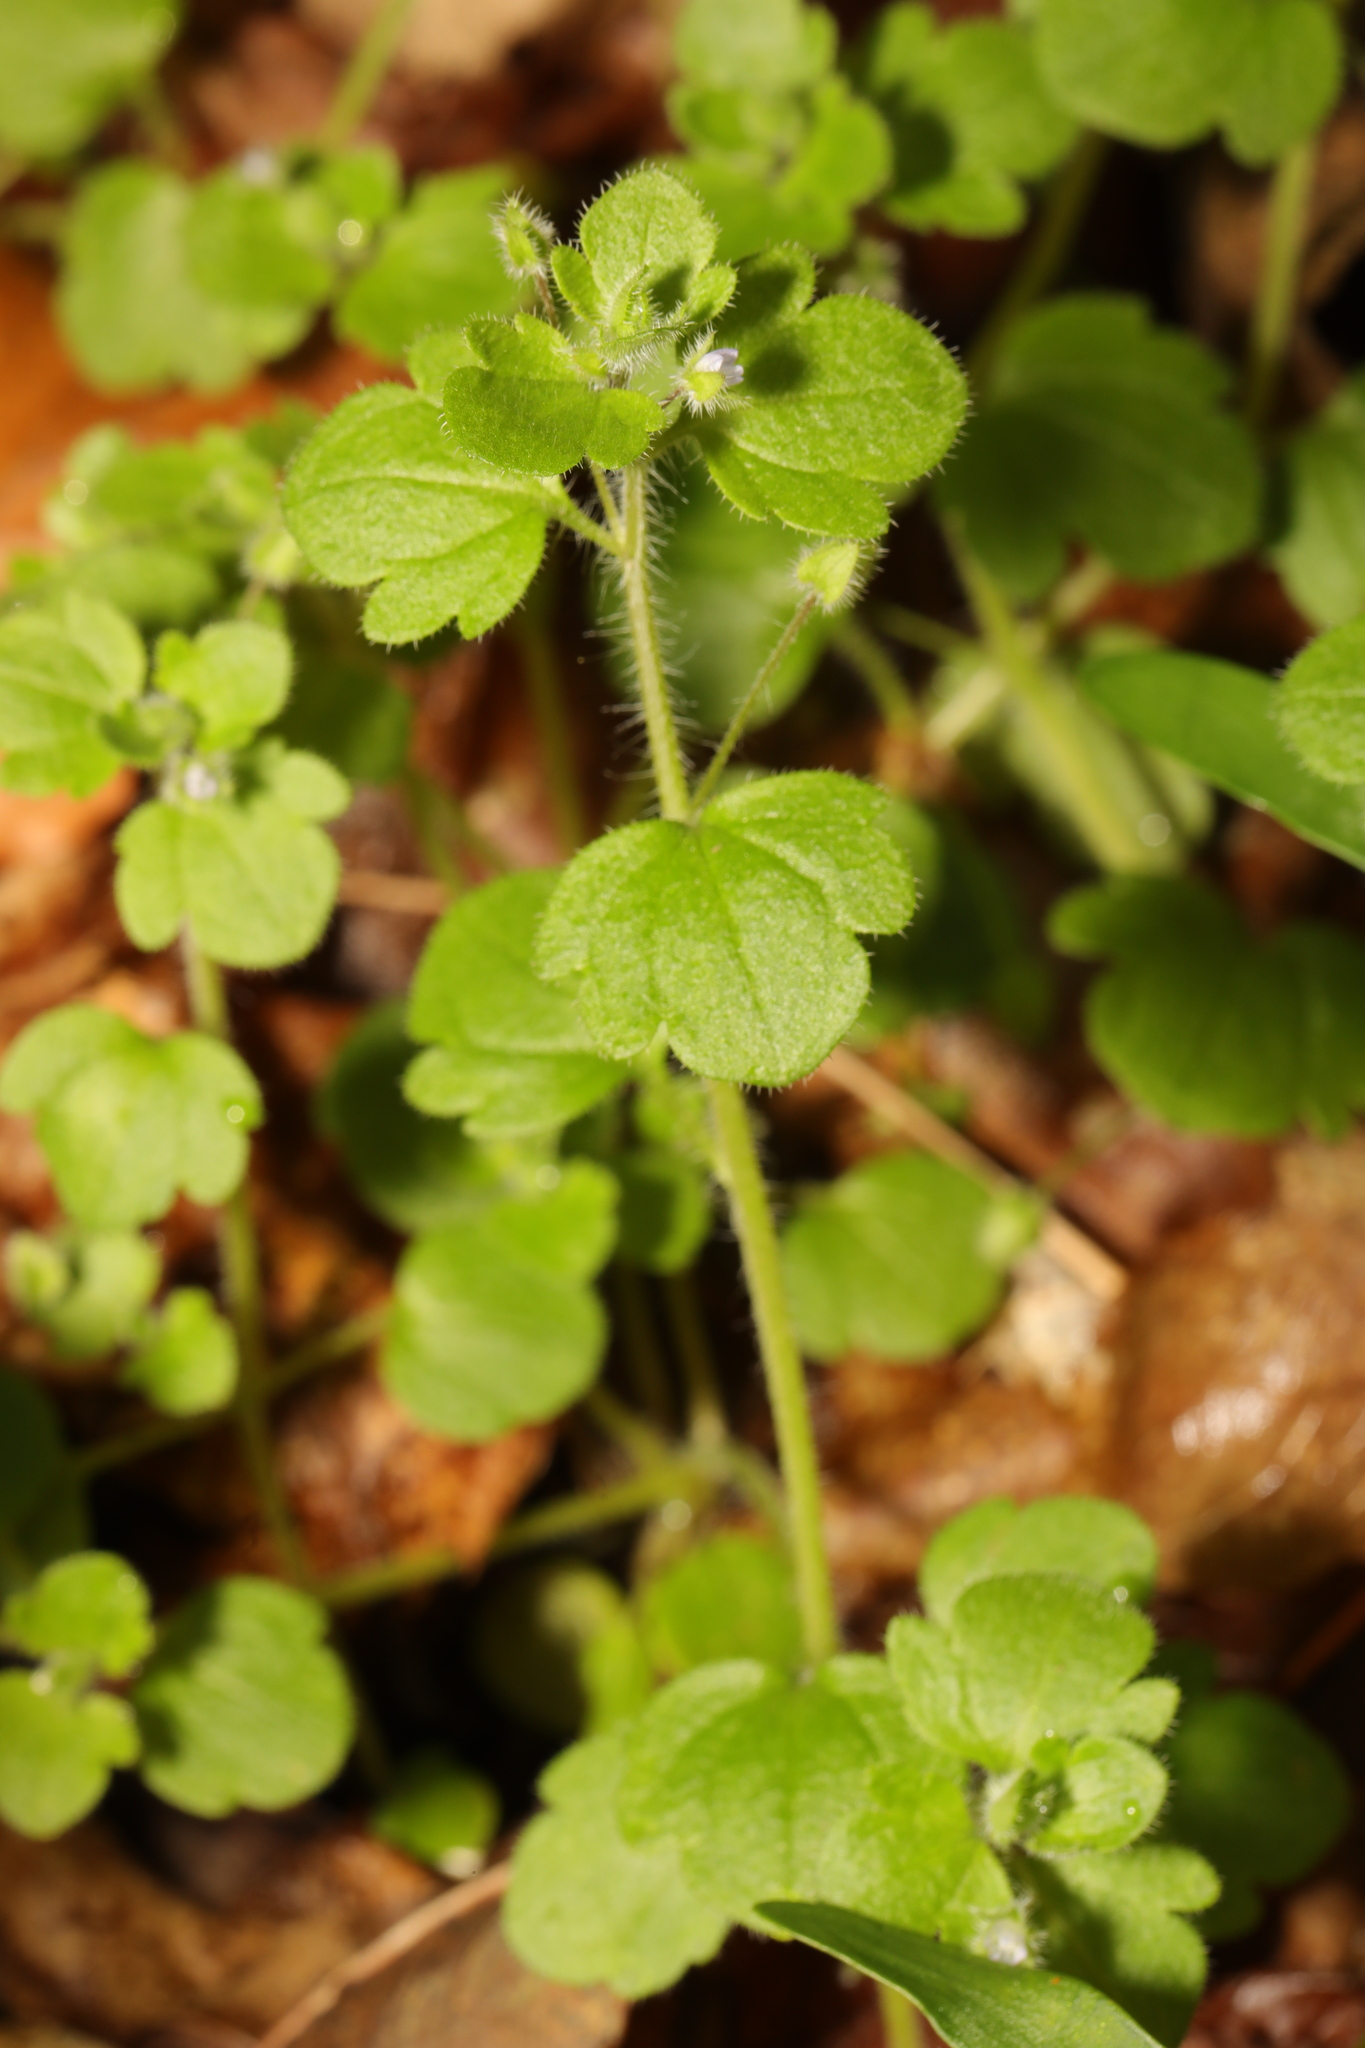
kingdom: Plantae
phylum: Tracheophyta
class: Magnoliopsida
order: Lamiales
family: Plantaginaceae
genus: Veronica
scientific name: Veronica sublobata
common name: False ivy-leaved speedwell
